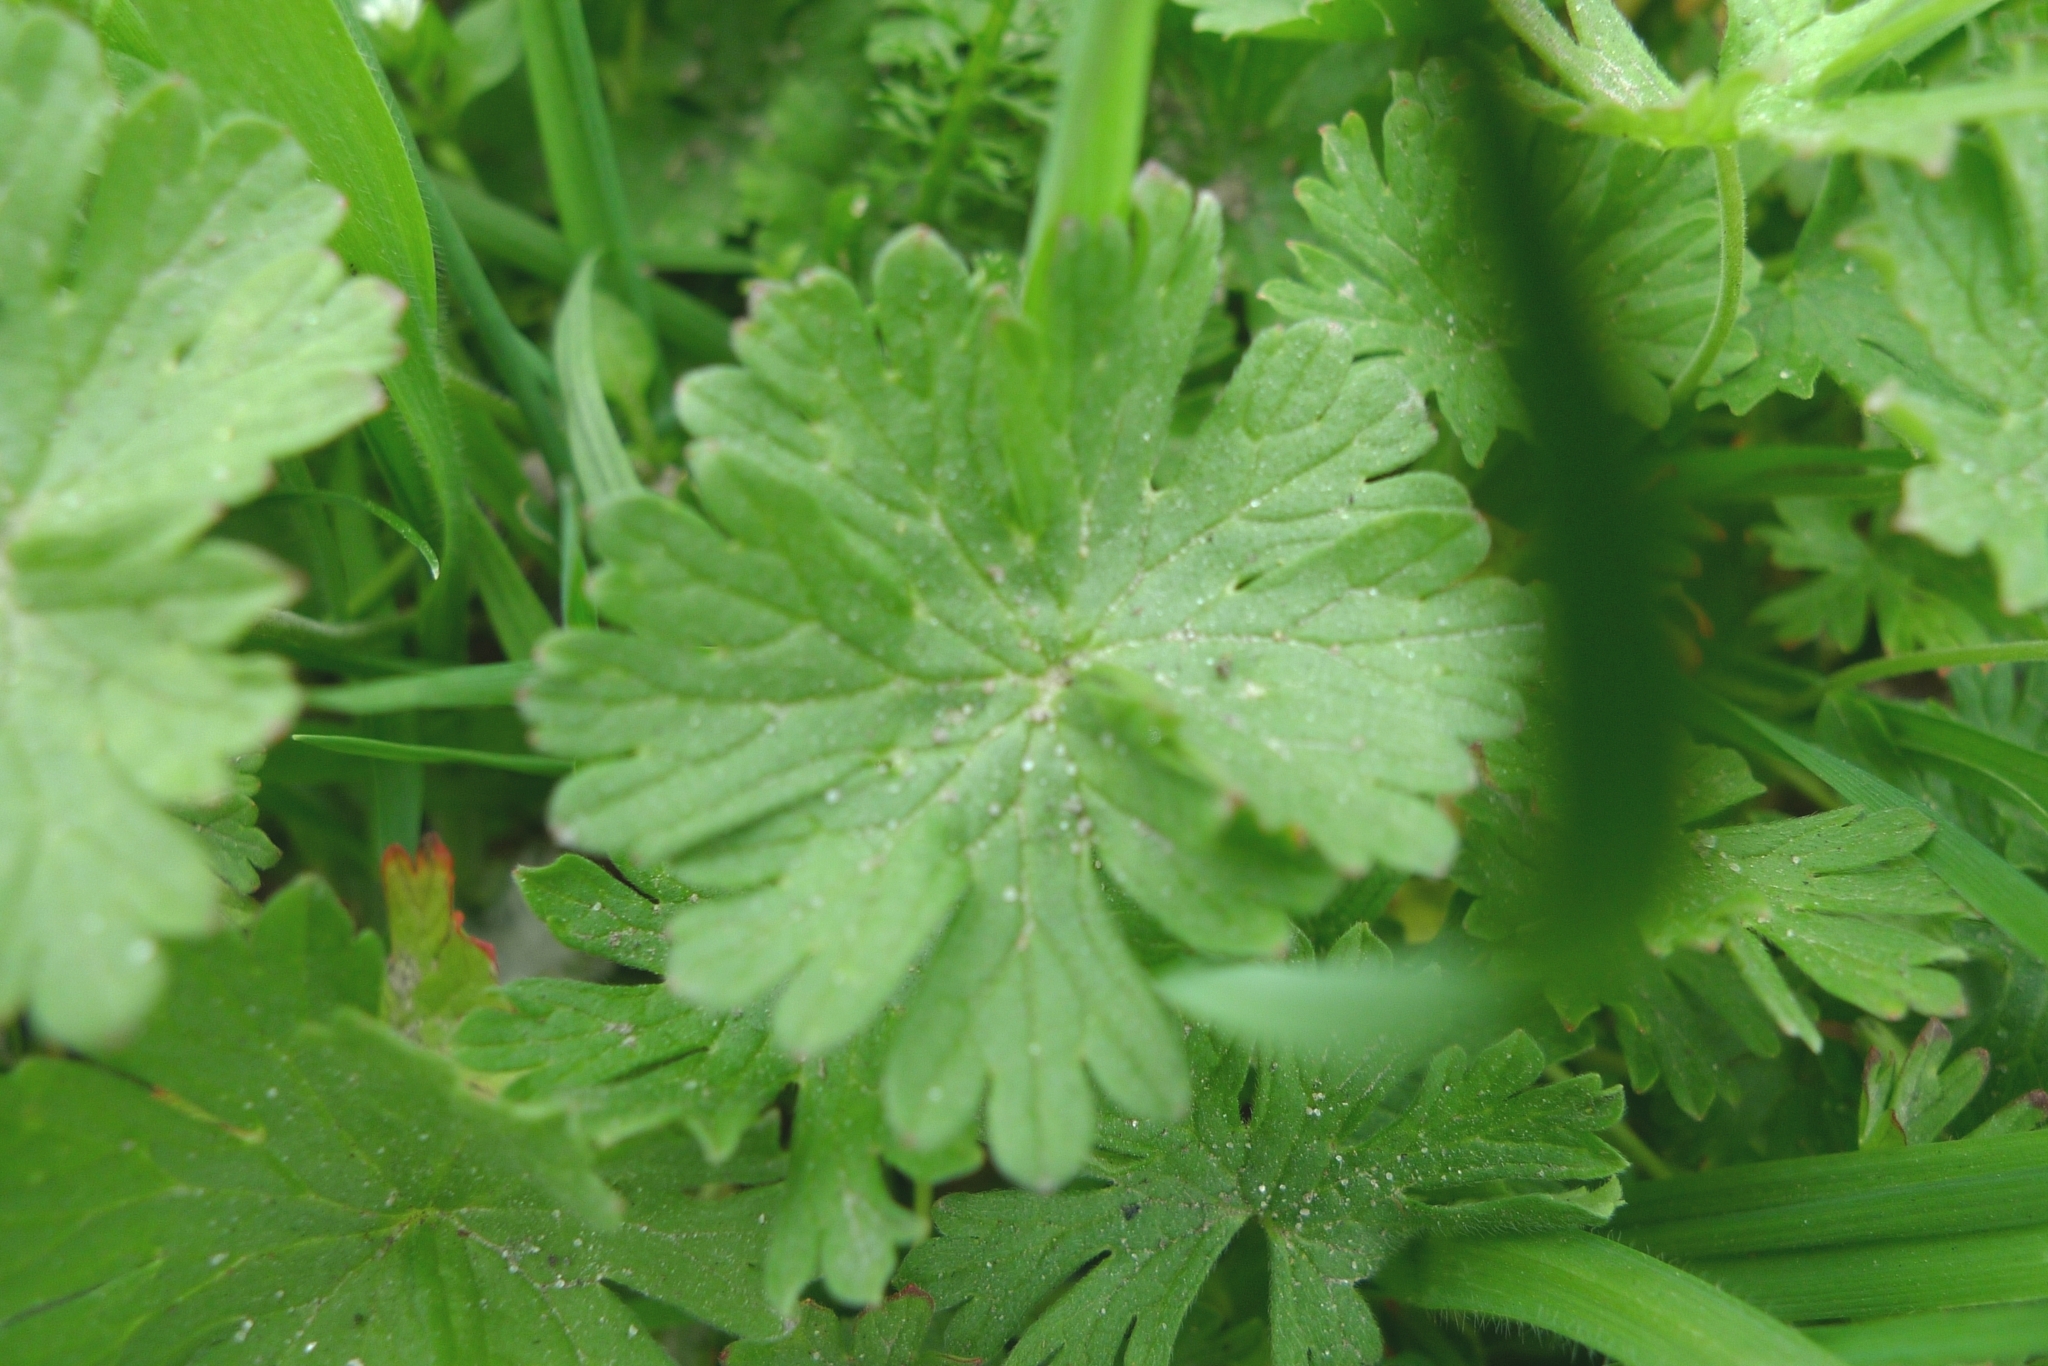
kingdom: Plantae
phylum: Tracheophyta
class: Magnoliopsida
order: Geraniales
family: Geraniaceae
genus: Geranium
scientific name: Geranium pusillum
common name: Small geranium
